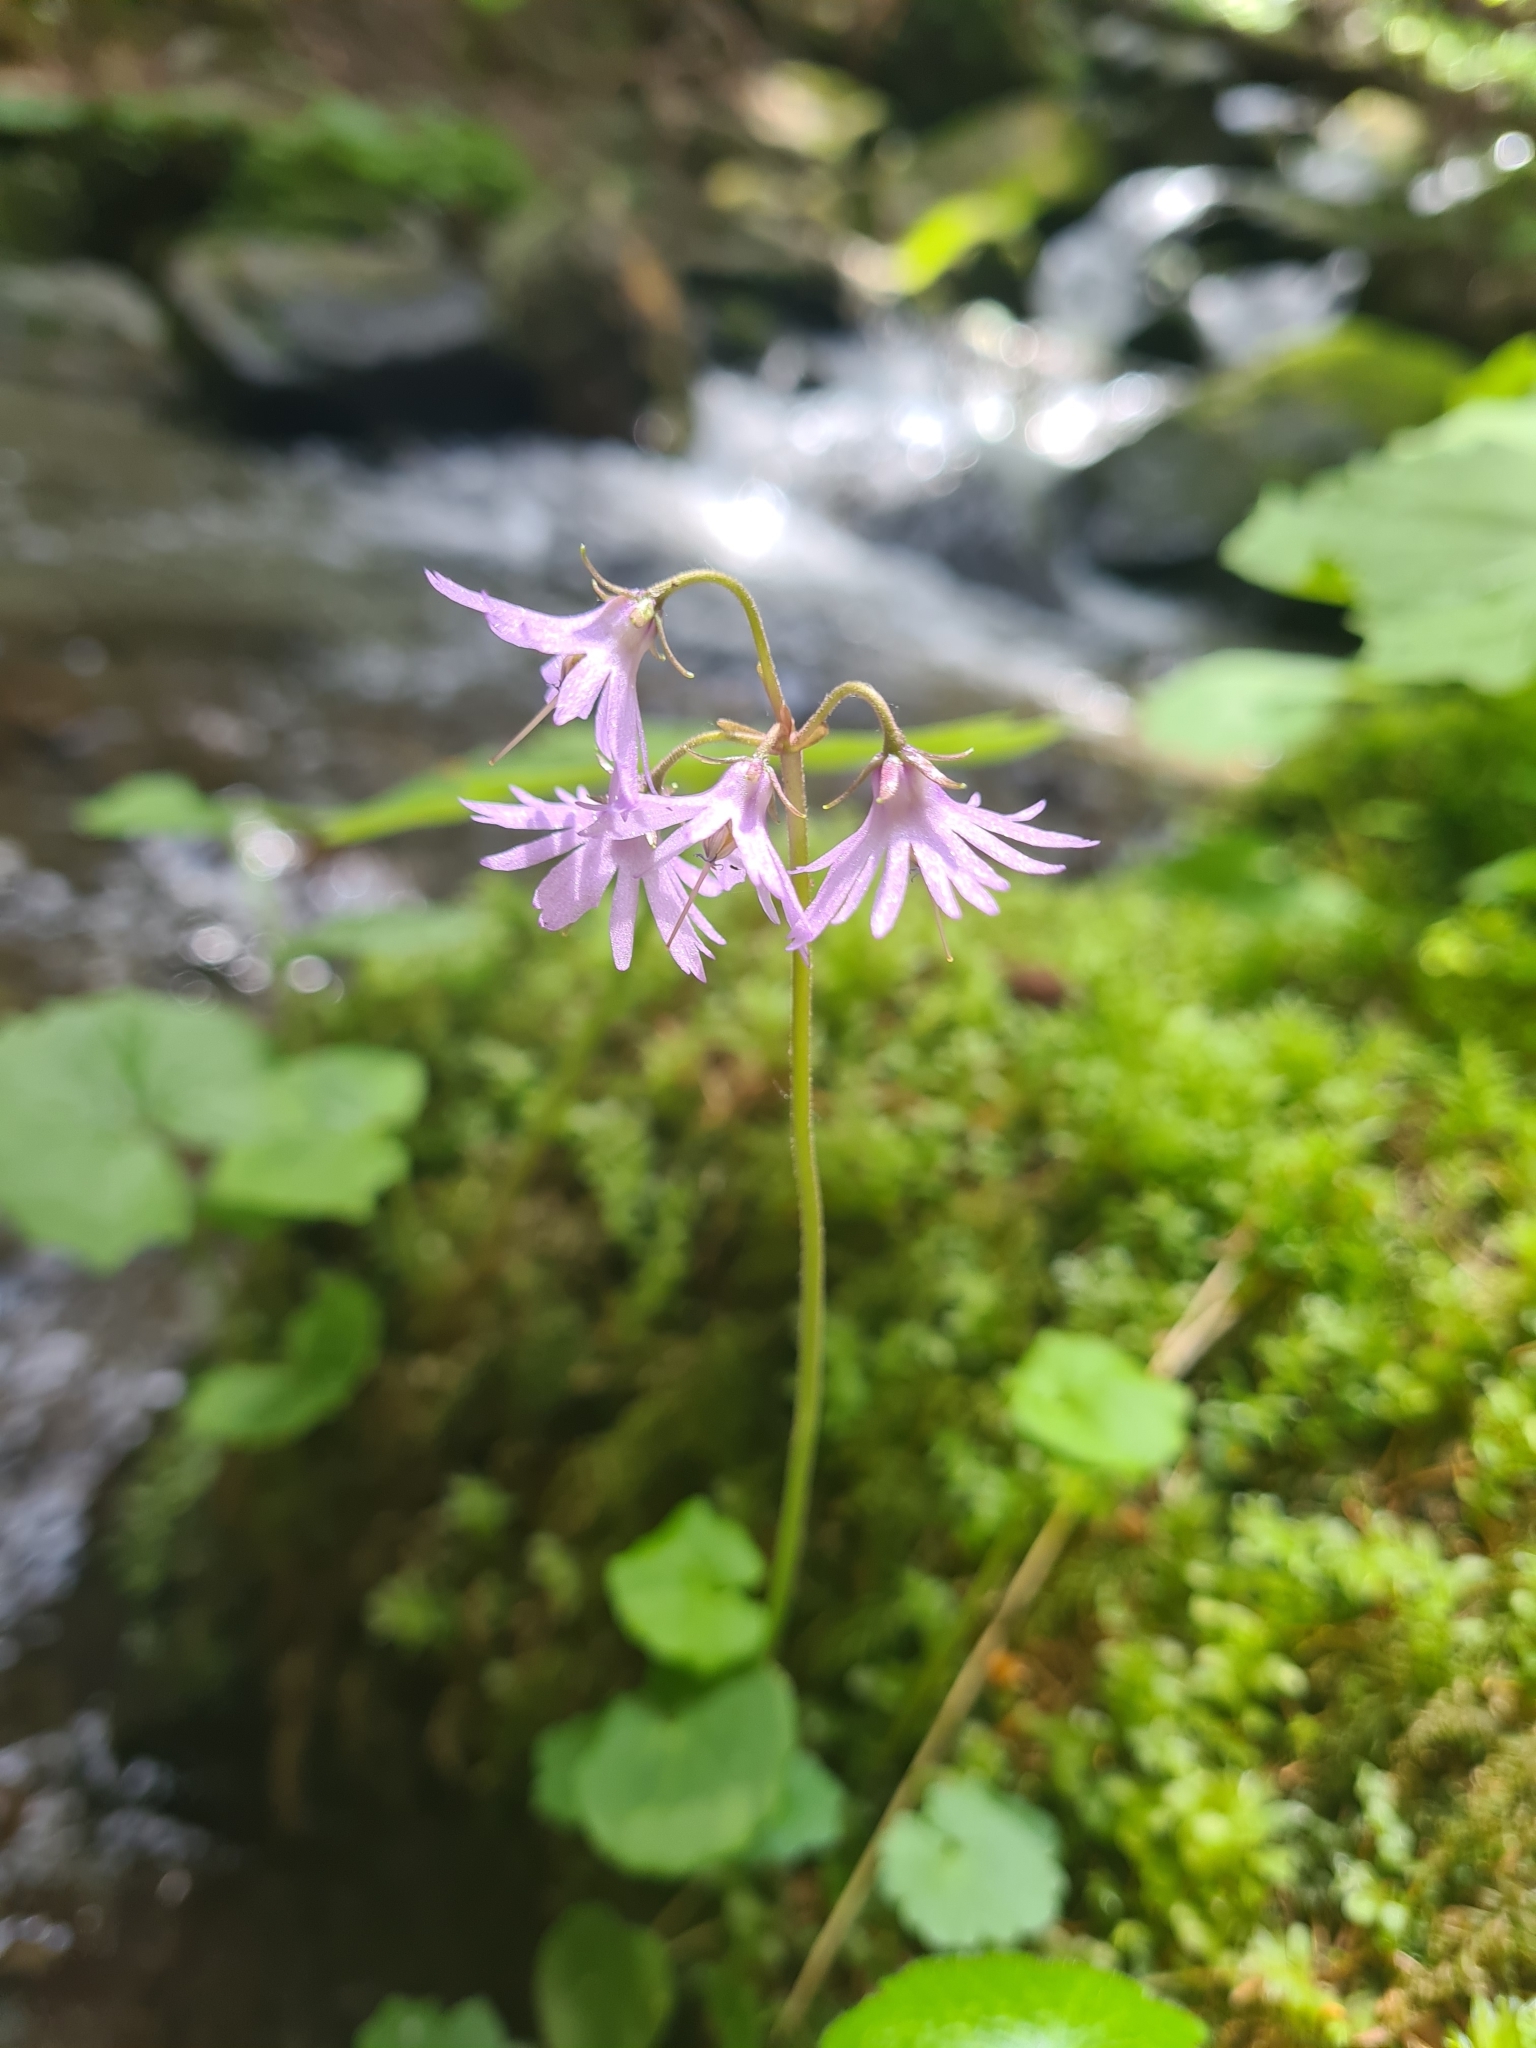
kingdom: Plantae
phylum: Tracheophyta
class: Magnoliopsida
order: Ericales
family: Primulaceae
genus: Soldanella
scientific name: Soldanella major
